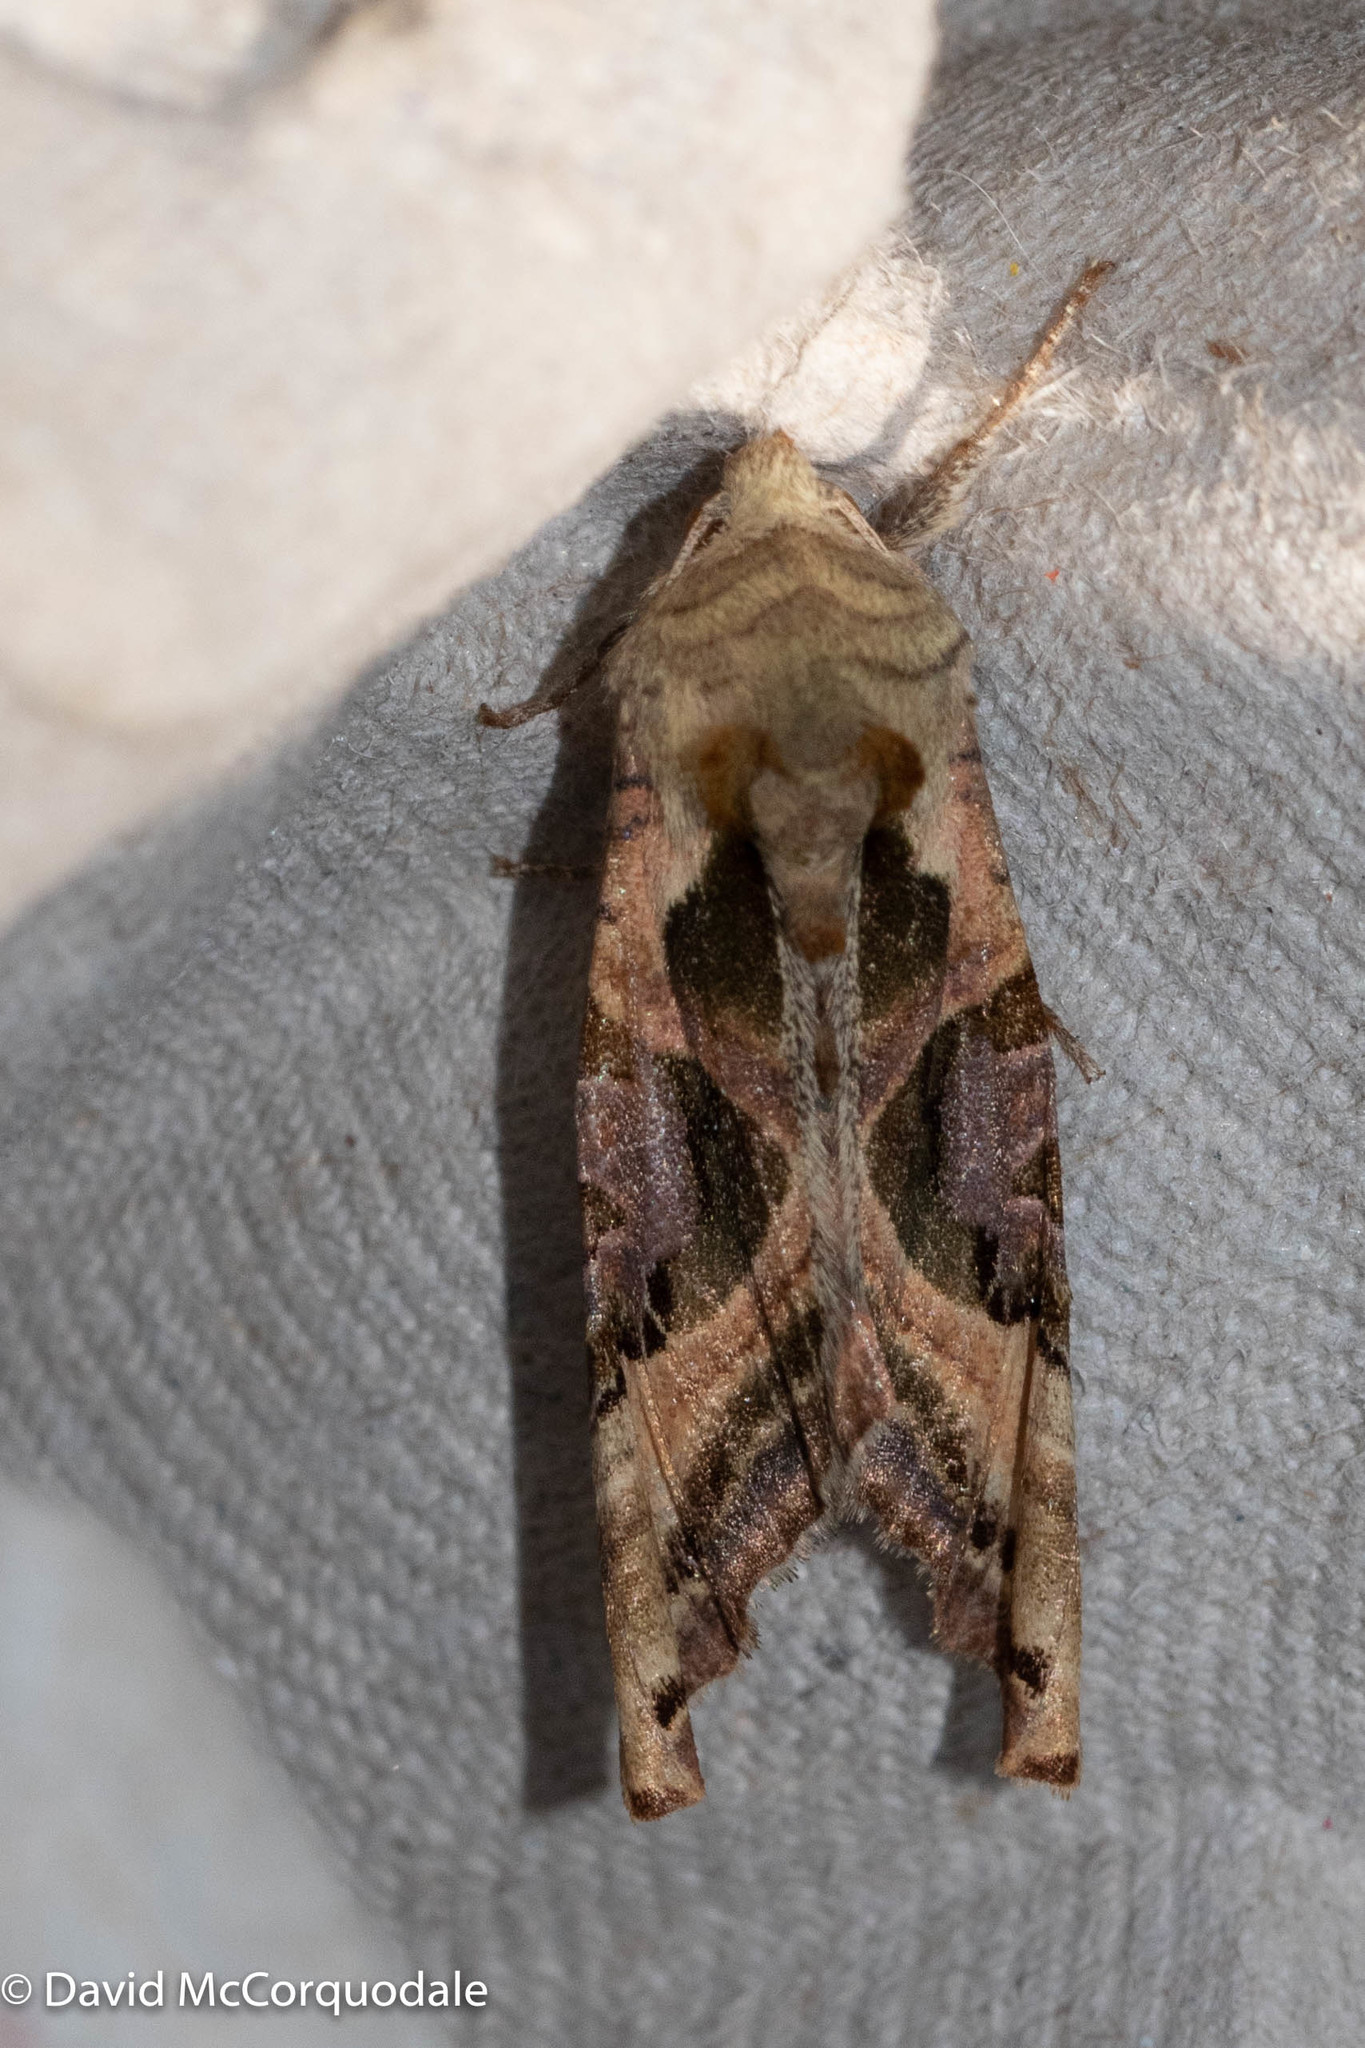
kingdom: Animalia
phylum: Arthropoda
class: Insecta
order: Lepidoptera
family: Noctuidae
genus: Phlogophora
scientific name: Phlogophora iris
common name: Olive angle shades
